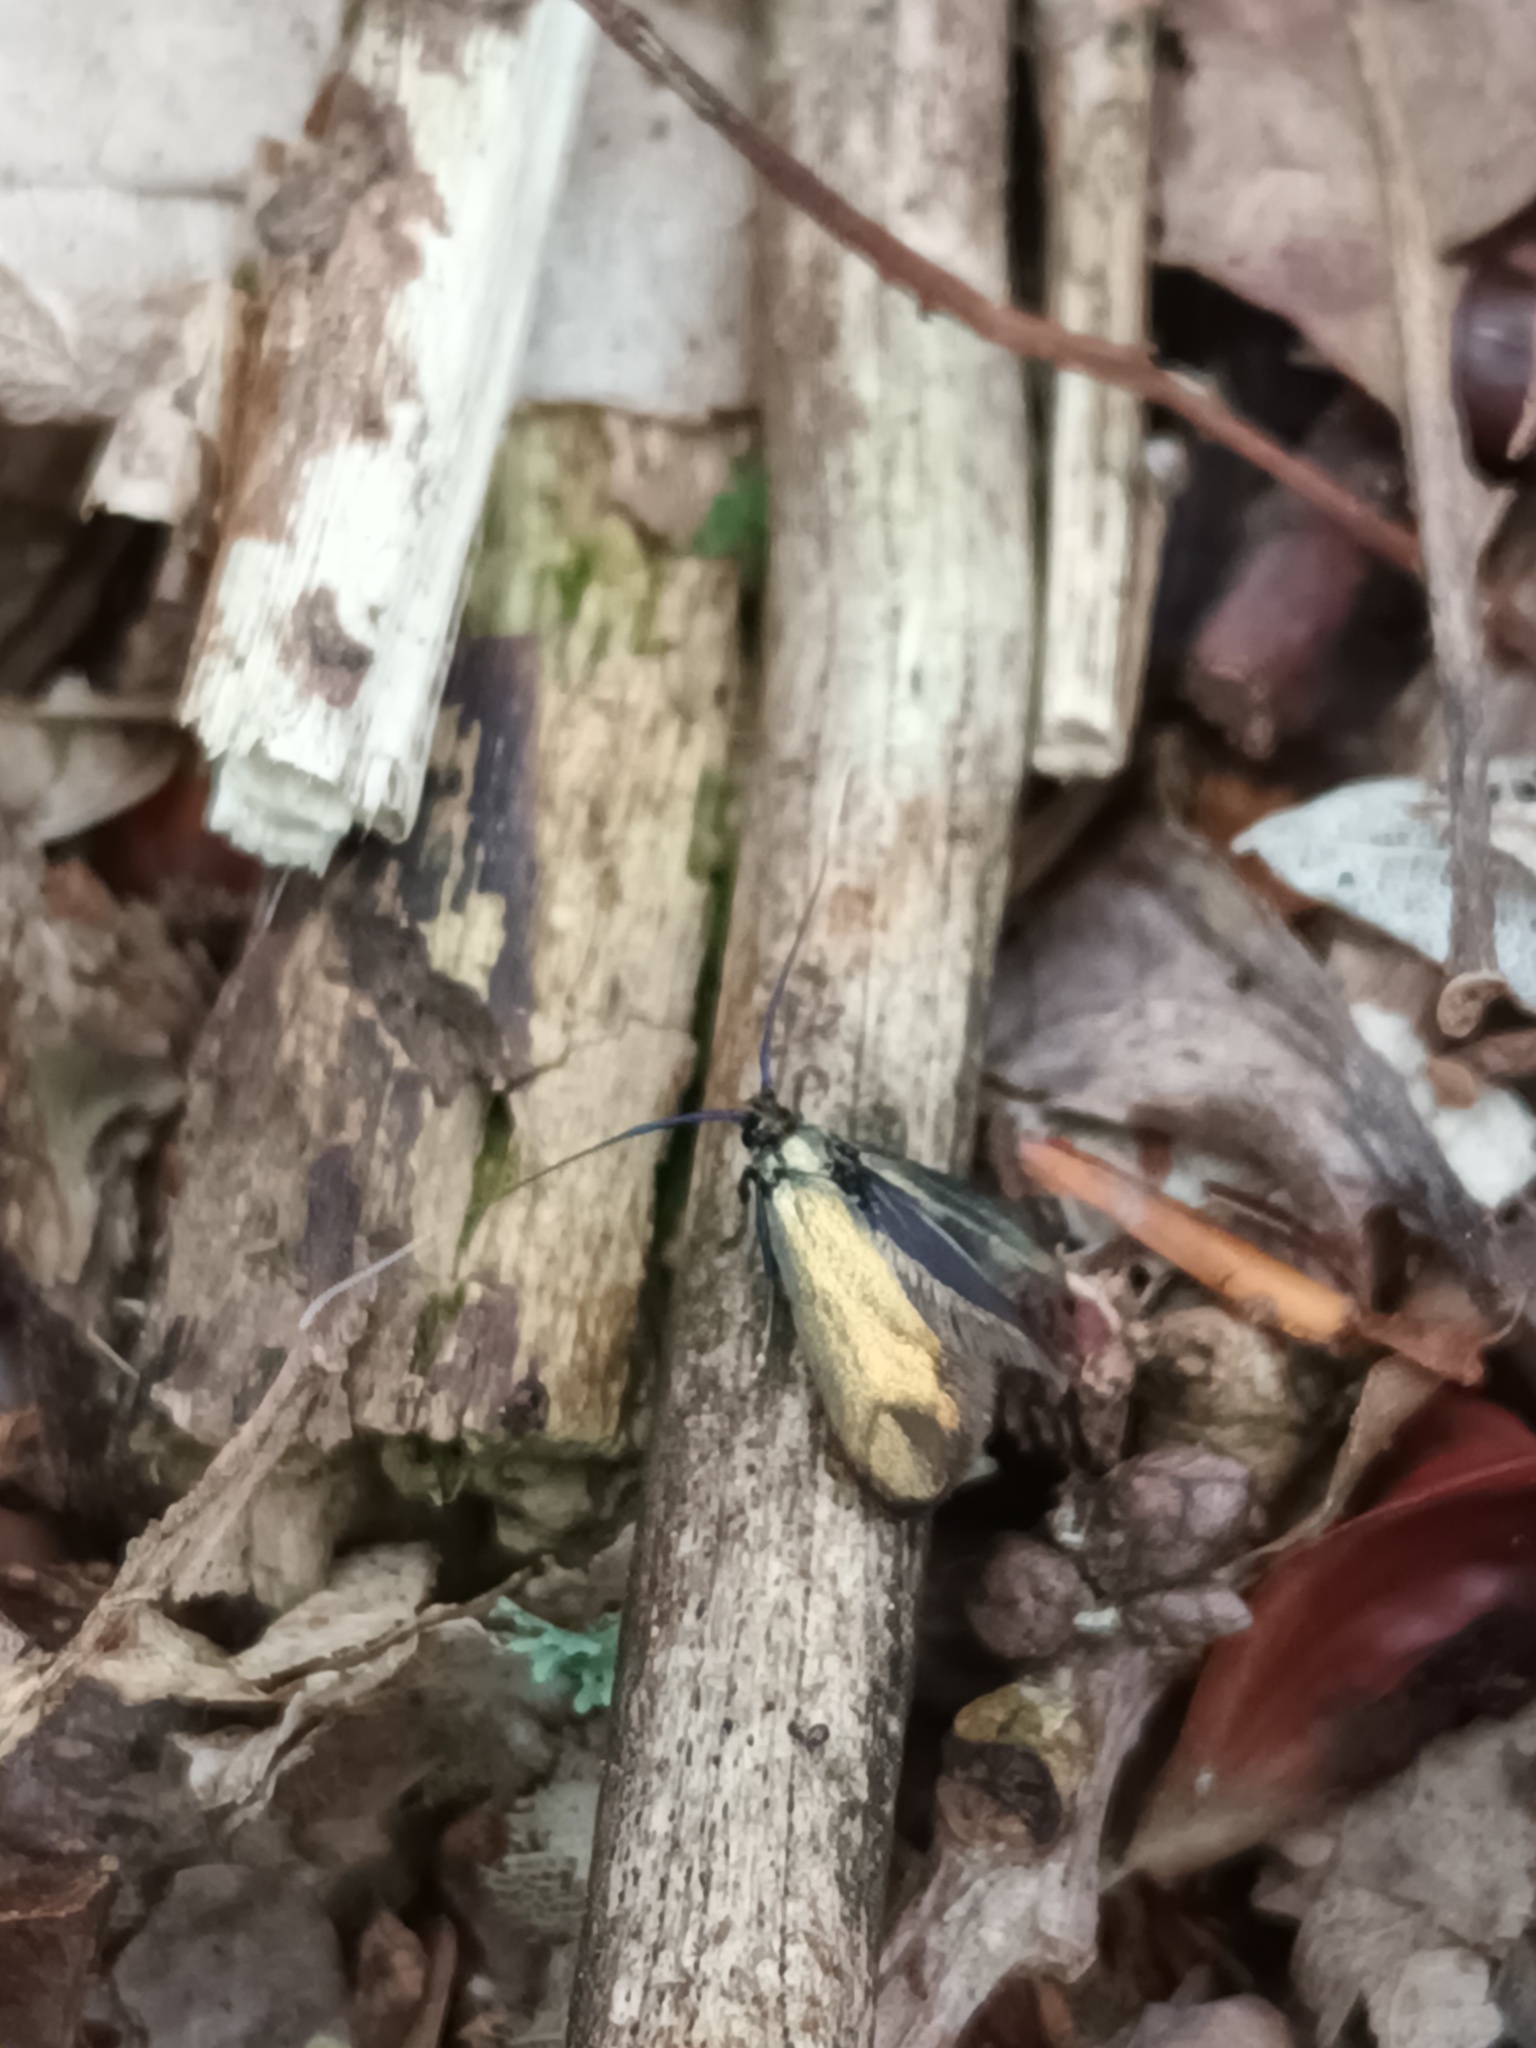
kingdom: Animalia
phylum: Arthropoda
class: Insecta
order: Lepidoptera
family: Adelidae
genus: Adela
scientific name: Adela viridella
